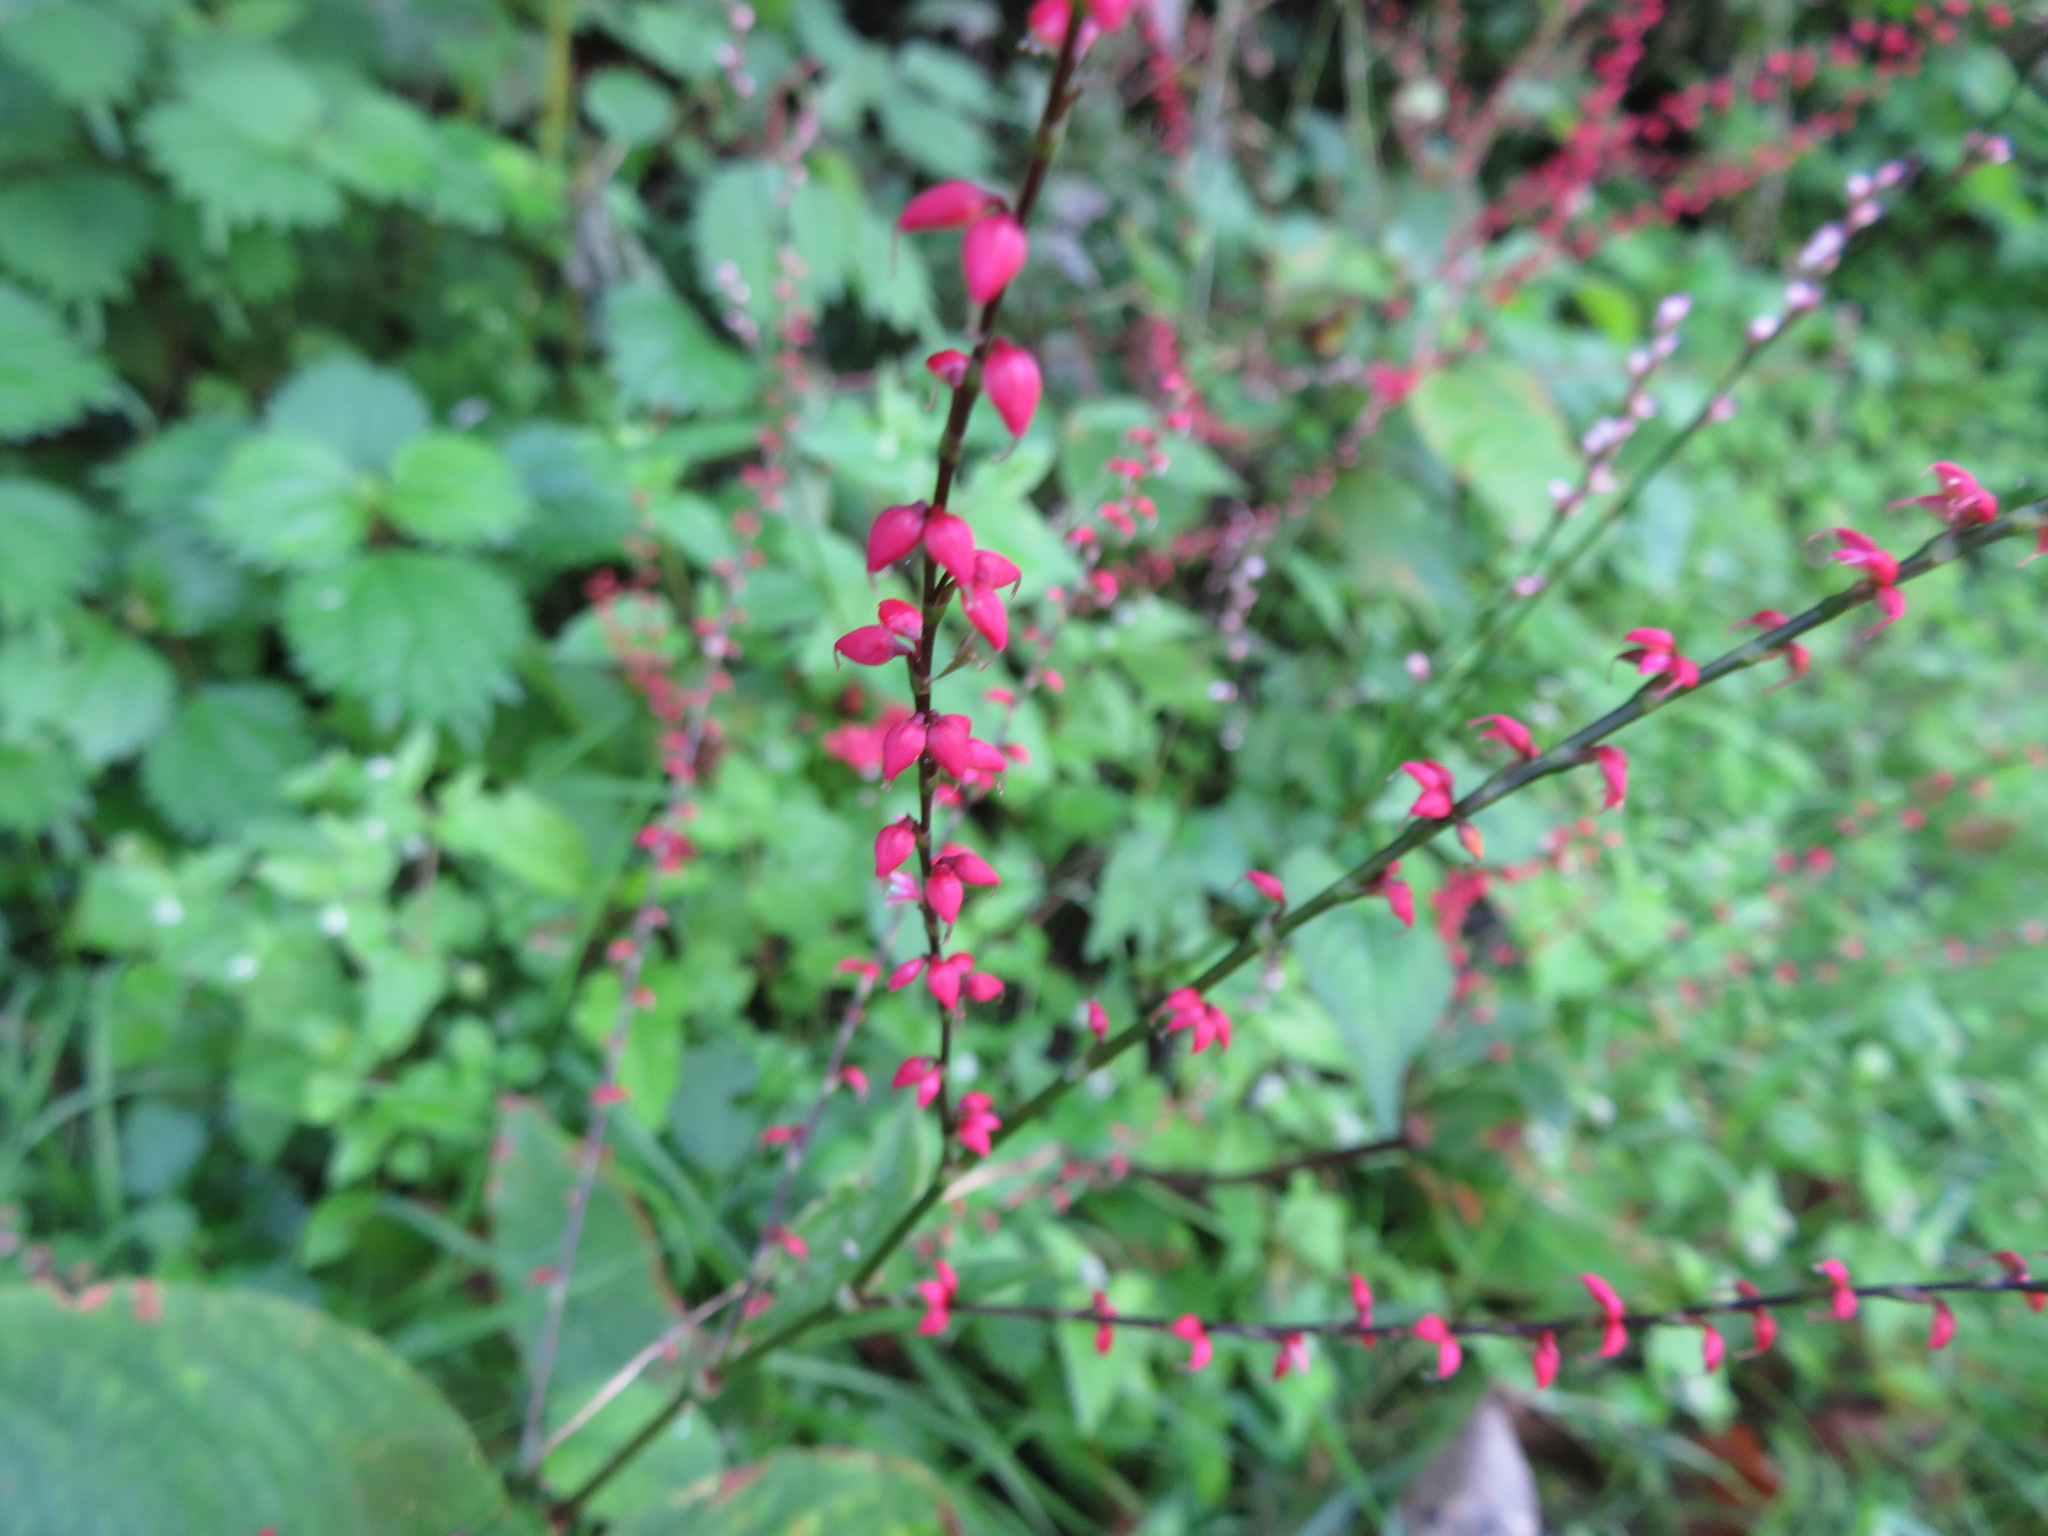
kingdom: Plantae
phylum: Tracheophyta
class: Magnoliopsida
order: Caryophyllales
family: Polygonaceae
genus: Persicaria
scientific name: Persicaria filiformis
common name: Asian jumpseed
